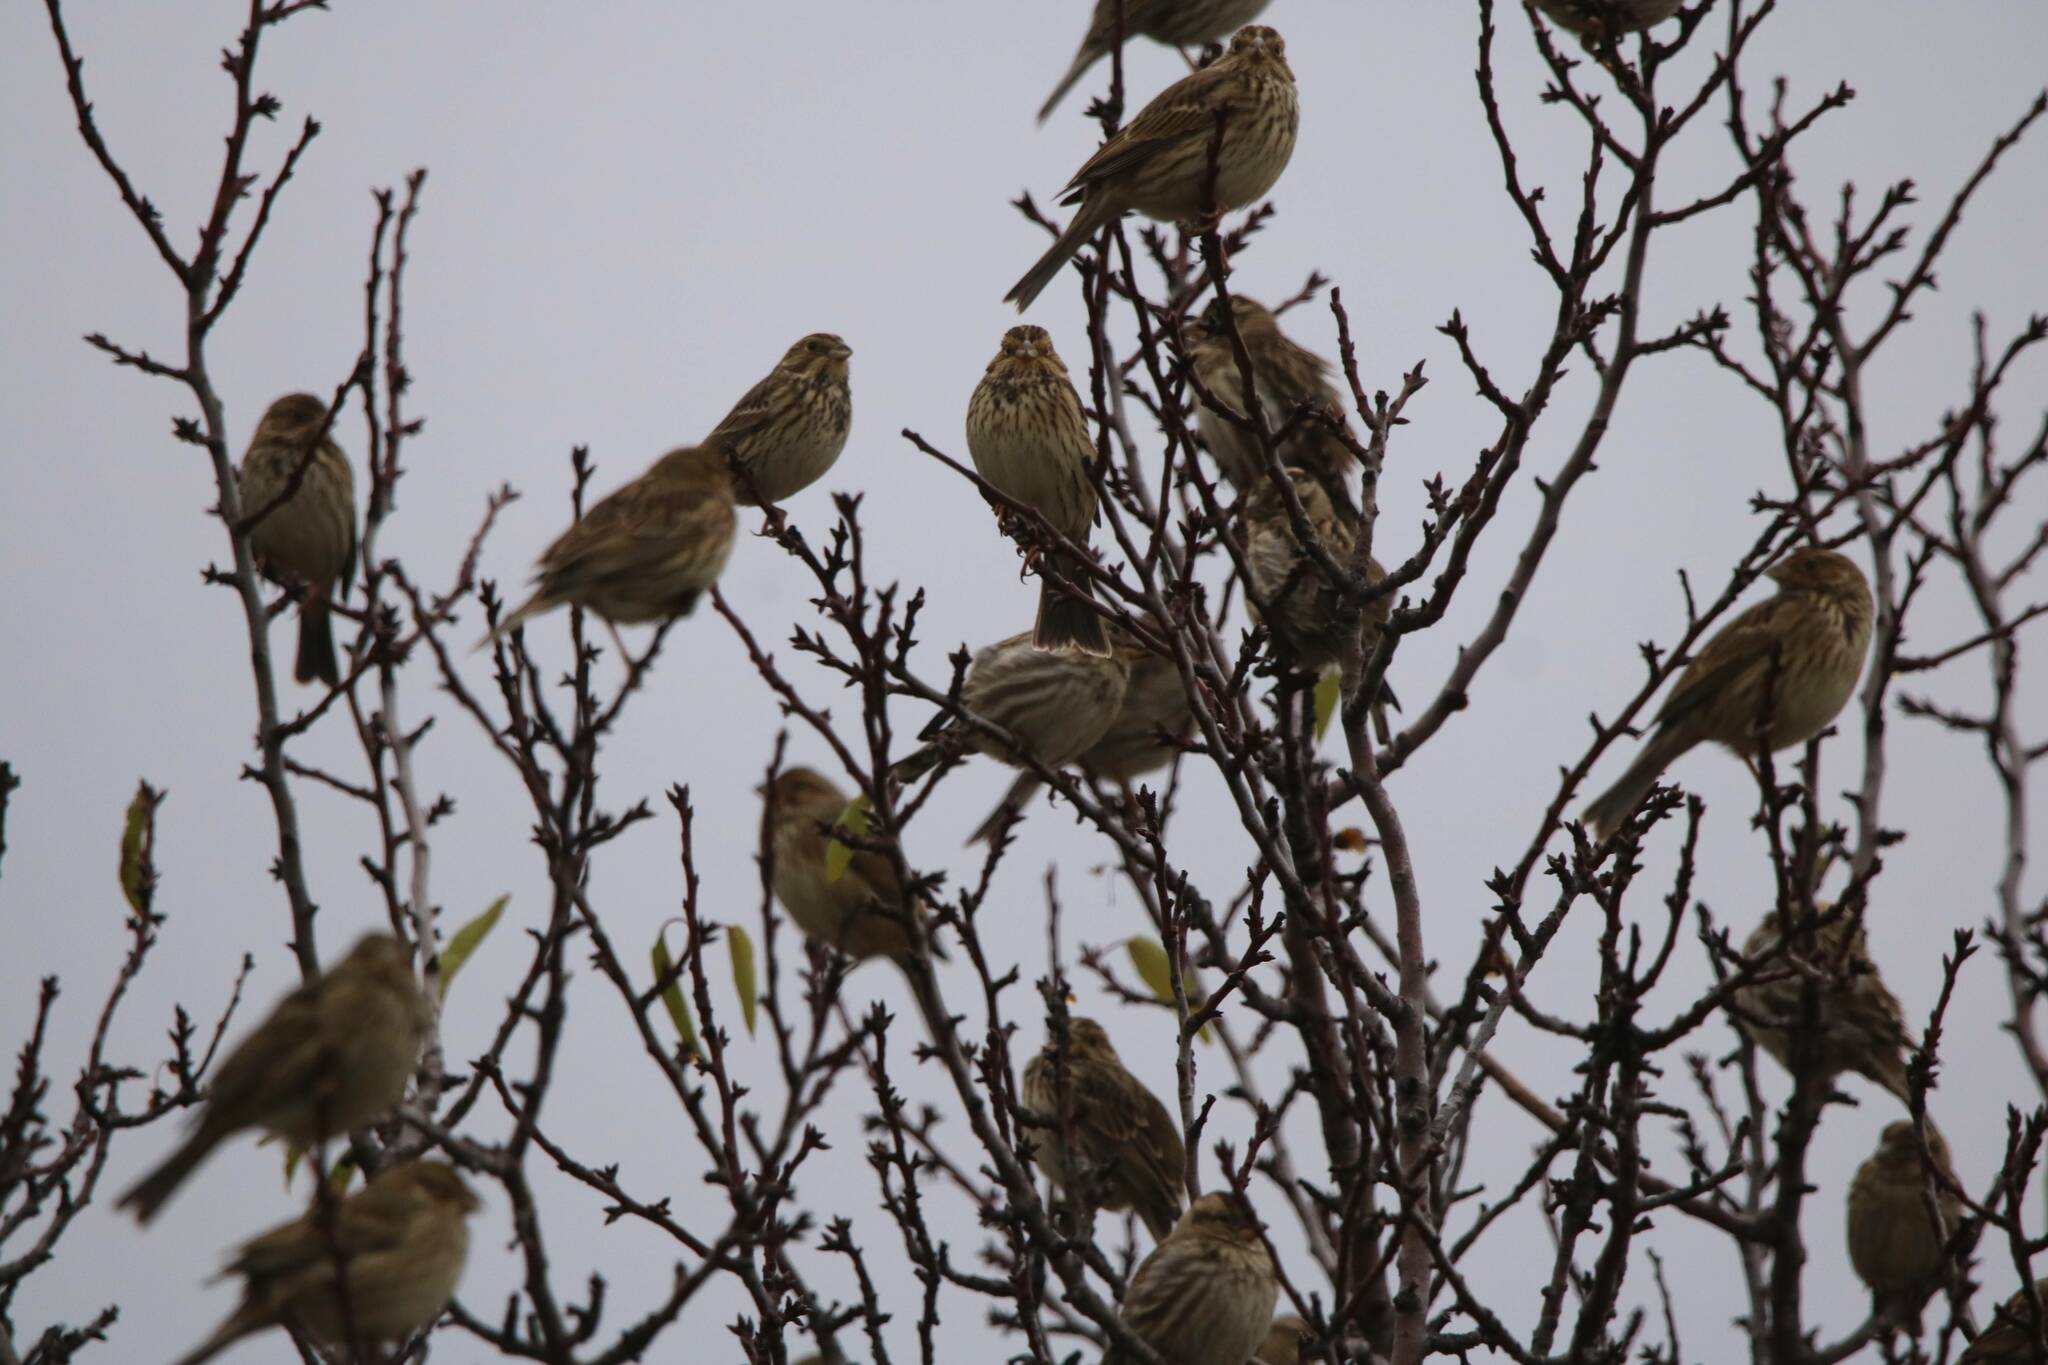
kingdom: Animalia
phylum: Chordata
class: Aves
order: Passeriformes
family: Emberizidae
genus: Emberiza
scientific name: Emberiza calandra
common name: Corn bunting
